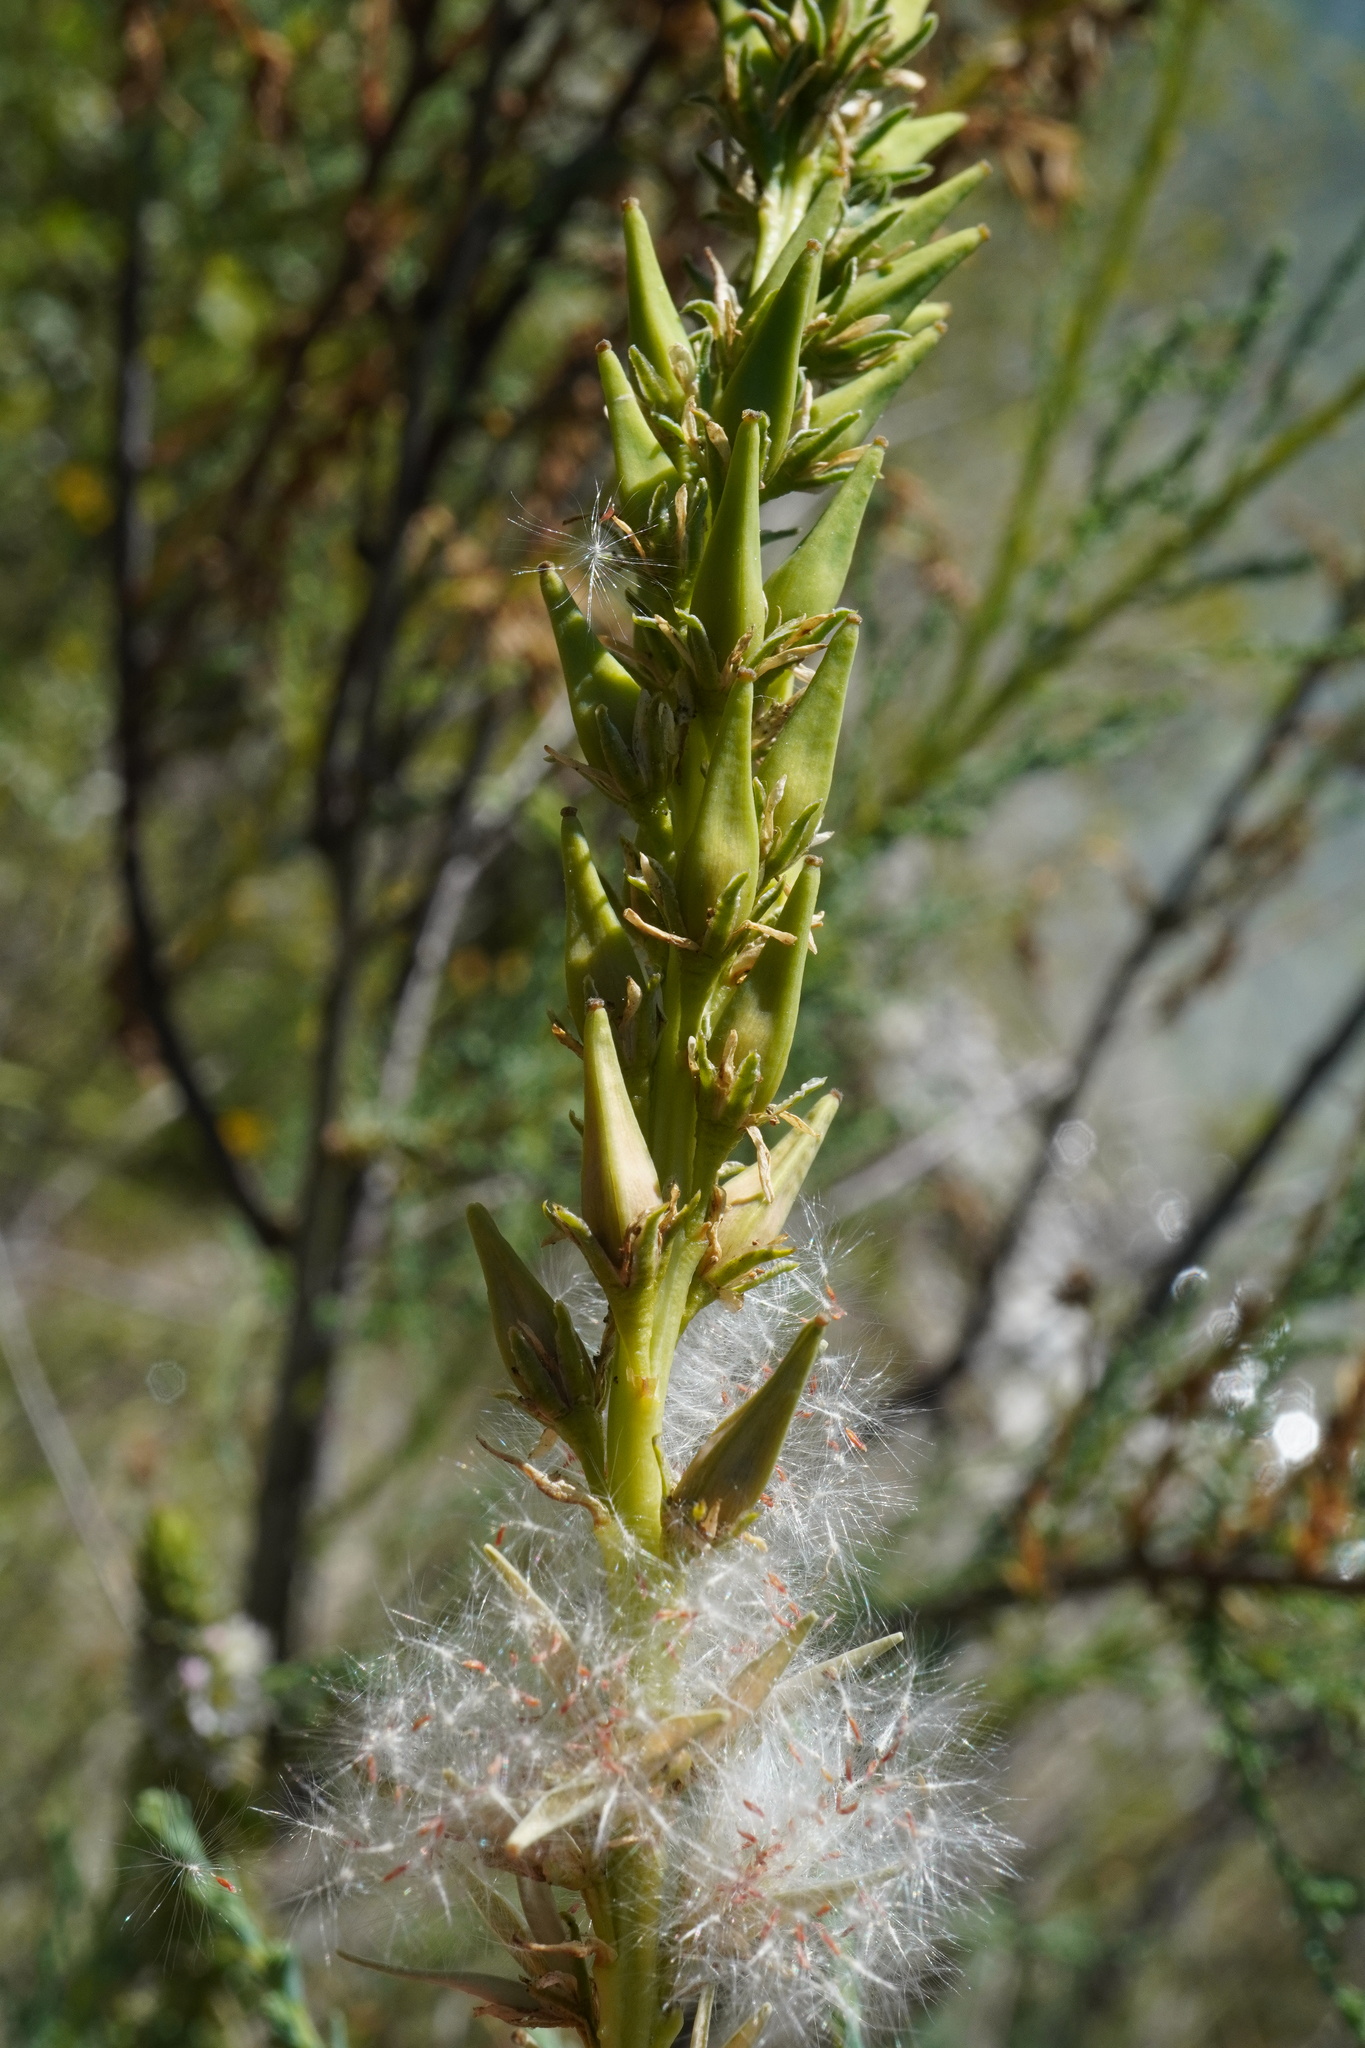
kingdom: Plantae
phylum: Tracheophyta
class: Magnoliopsida
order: Caryophyllales
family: Tamaricaceae
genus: Myricaria
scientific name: Myricaria germanica
